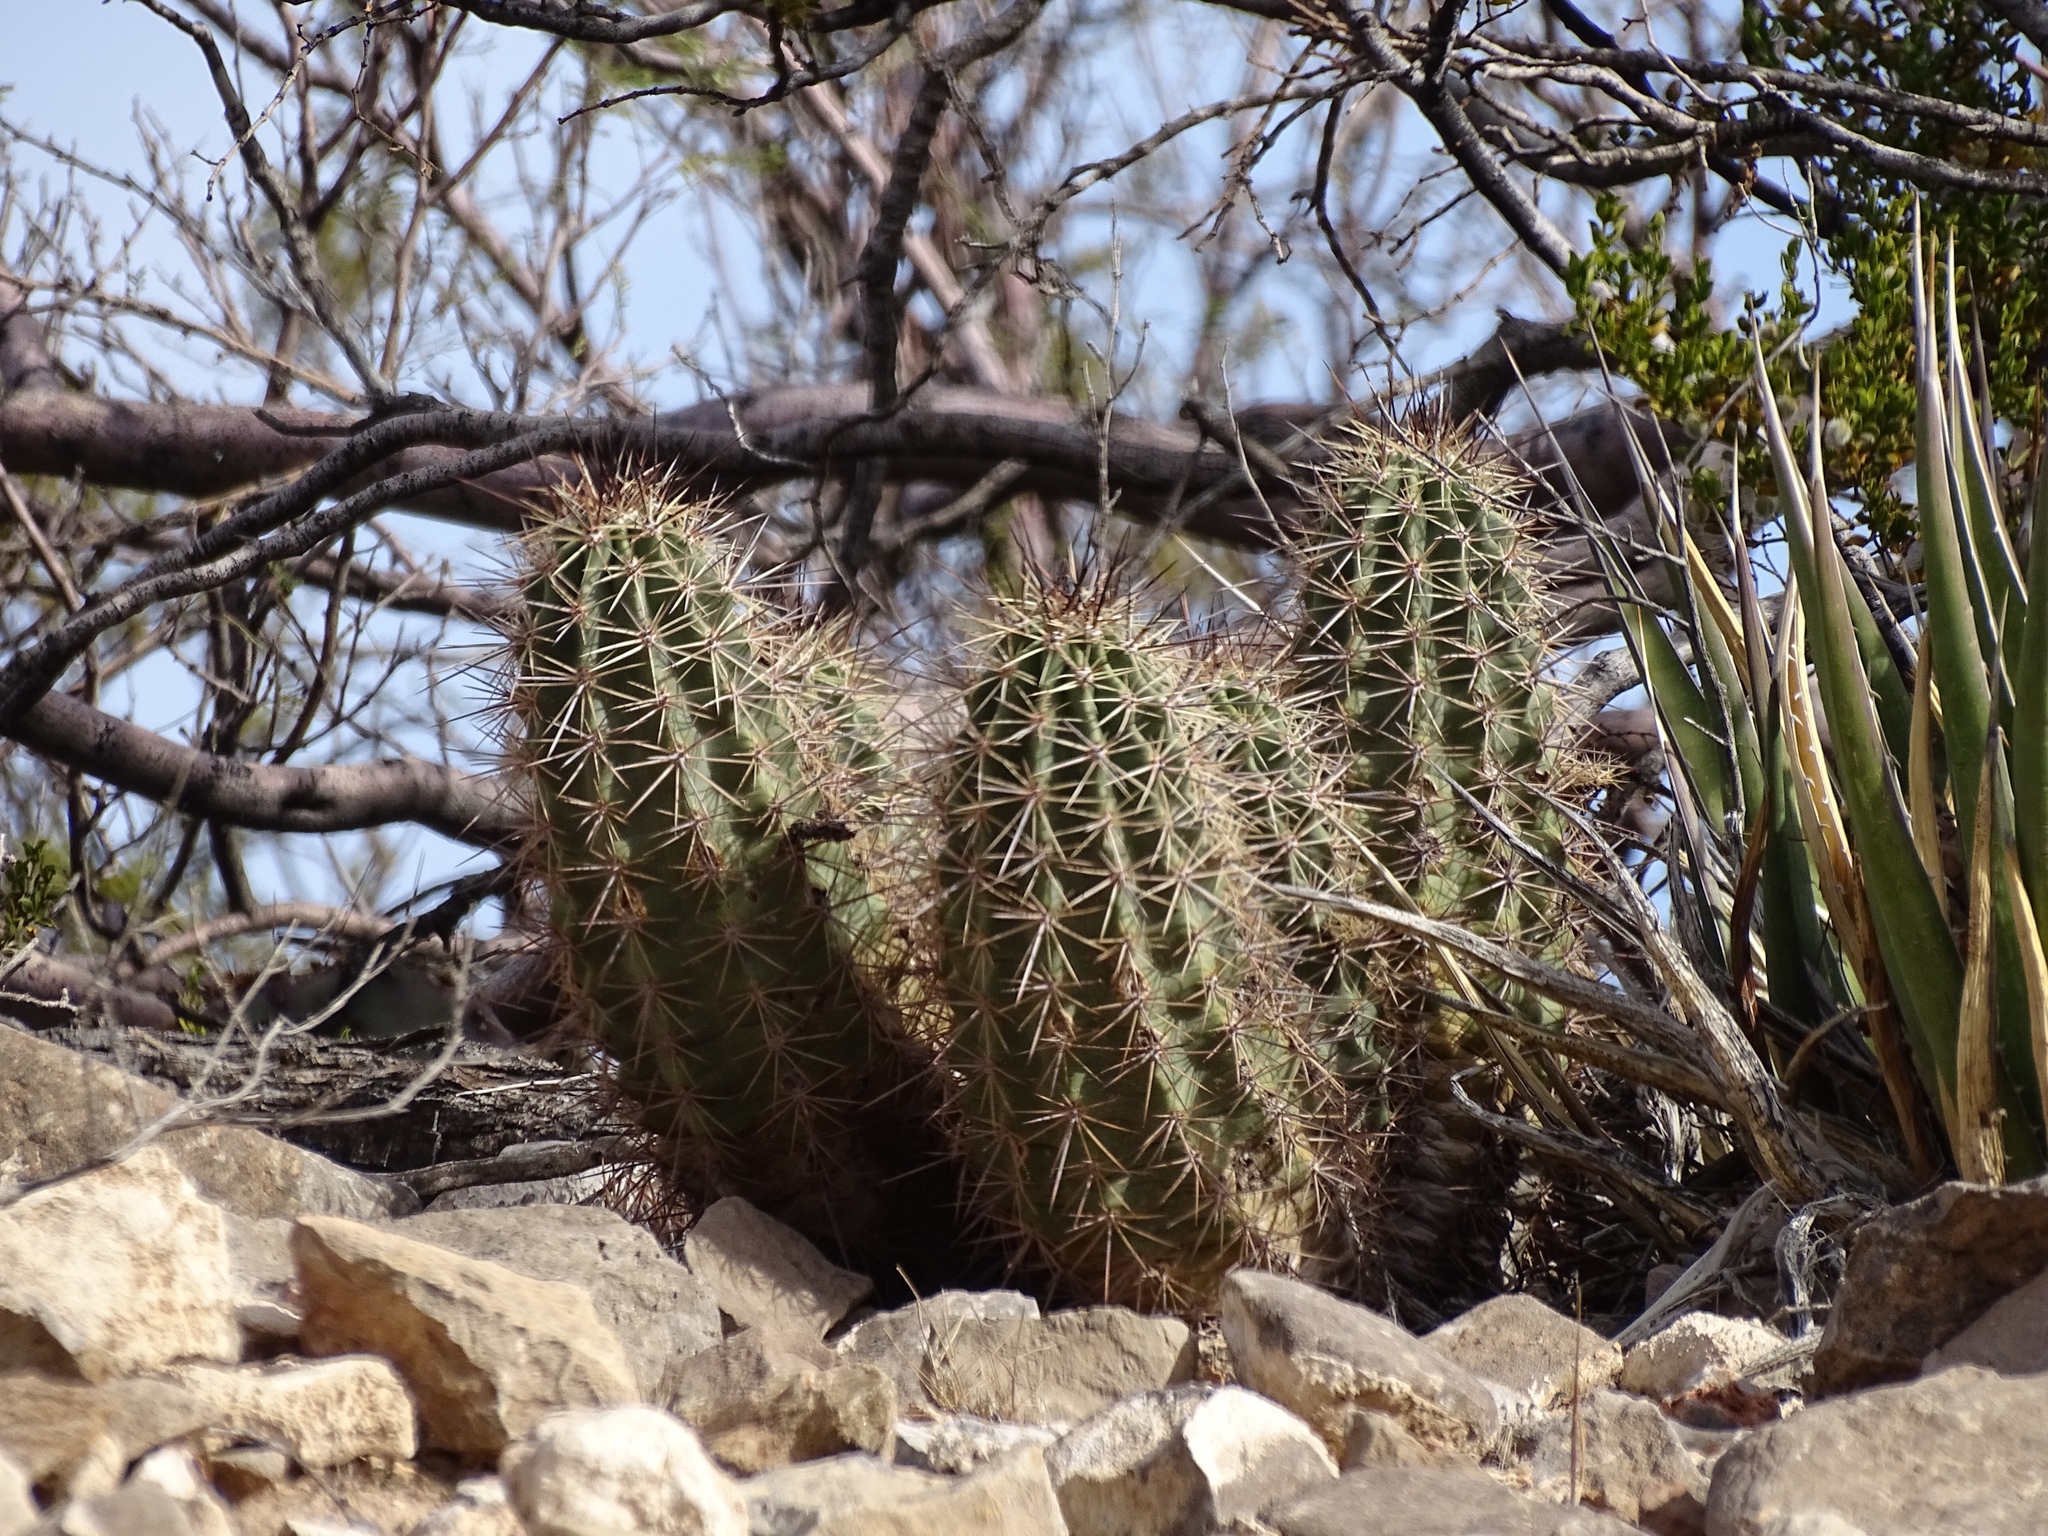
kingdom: Plantae
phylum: Tracheophyta
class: Magnoliopsida
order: Caryophyllales
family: Cactaceae
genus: Echinocereus
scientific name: Echinocereus coccineus
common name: Scarlet hedgehog cactus
